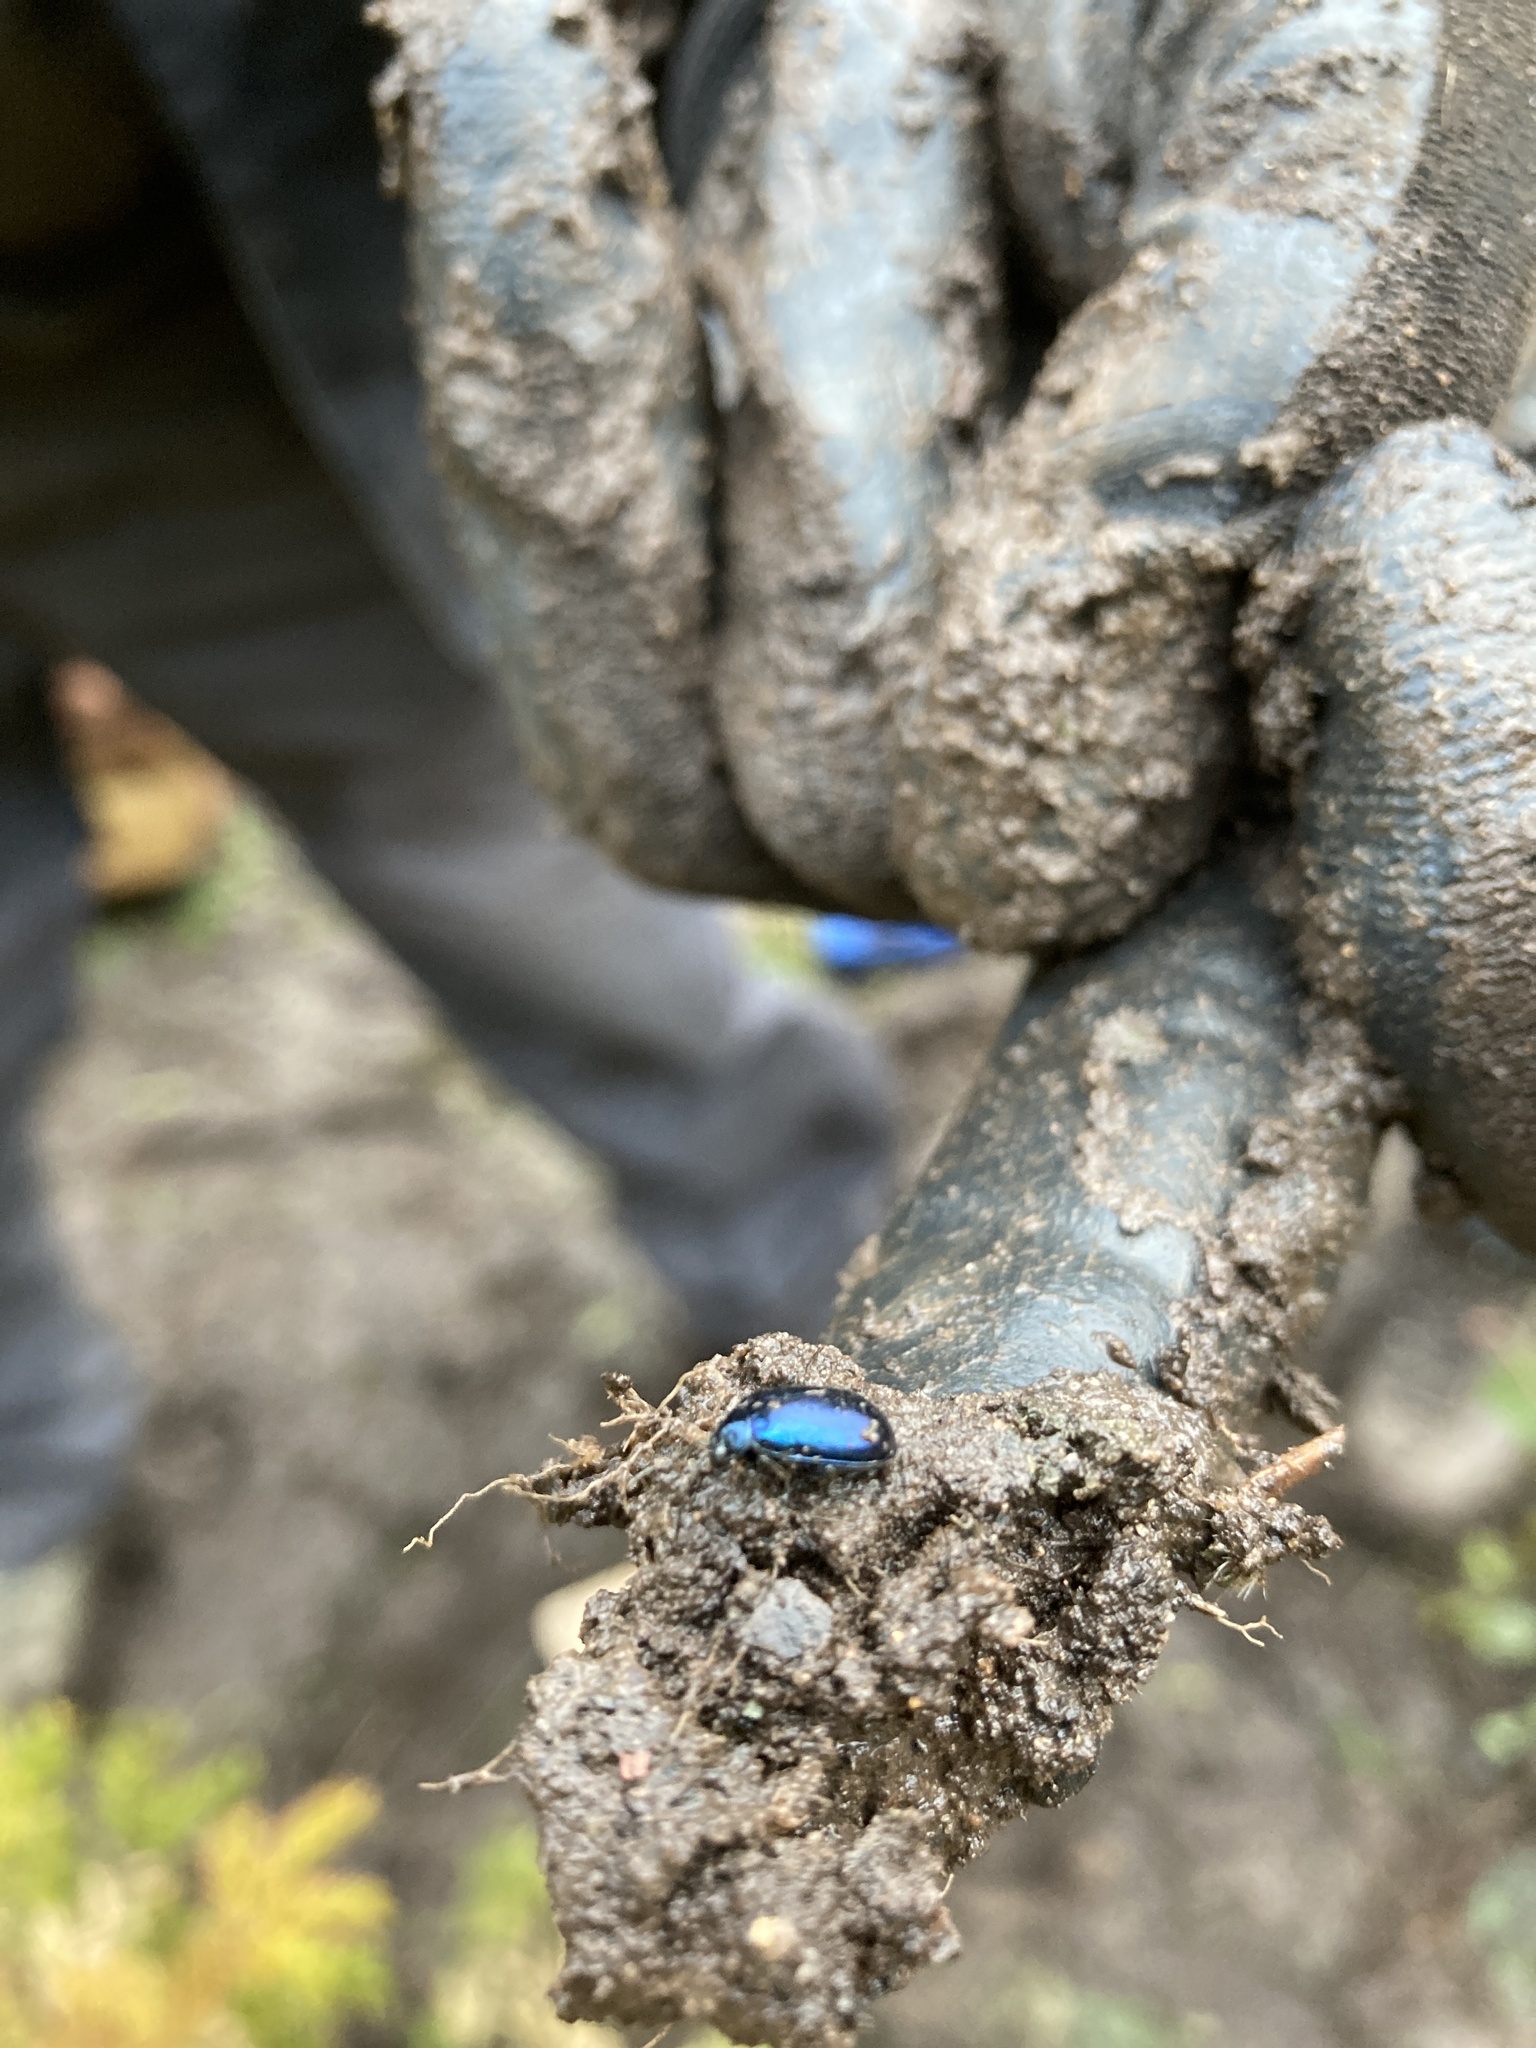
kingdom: Animalia
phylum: Arthropoda
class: Insecta
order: Coleoptera
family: Chrysomelidae
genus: Agelastica
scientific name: Agelastica alni
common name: Alder leaf beetle
